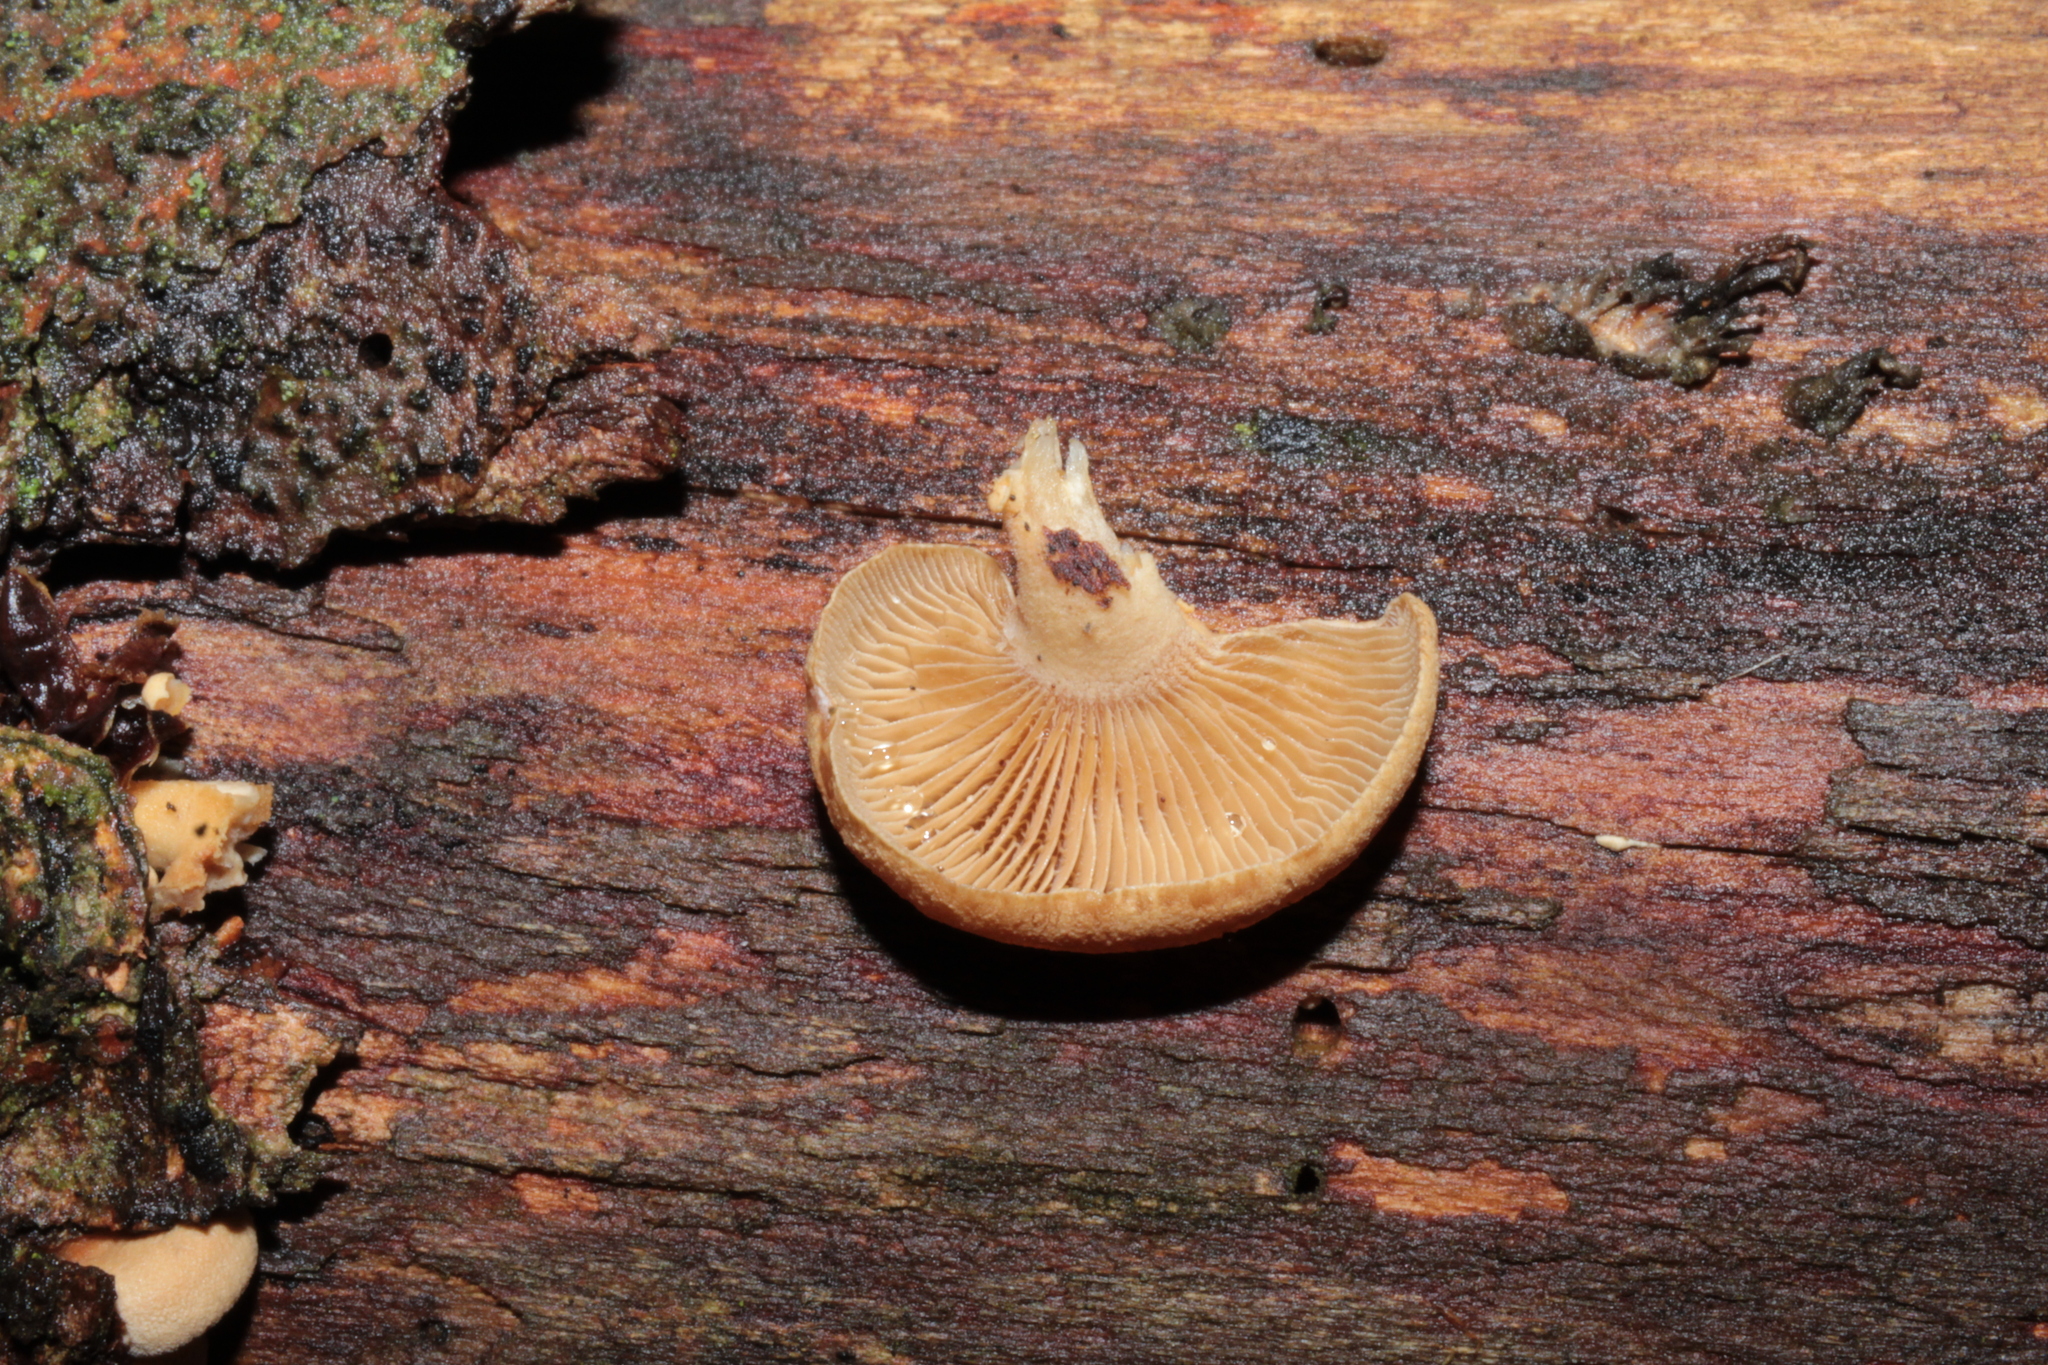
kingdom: Fungi
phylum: Basidiomycota
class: Agaricomycetes
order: Agaricales
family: Mycenaceae
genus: Panellus
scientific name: Panellus stipticus
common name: Bitter oysterling
